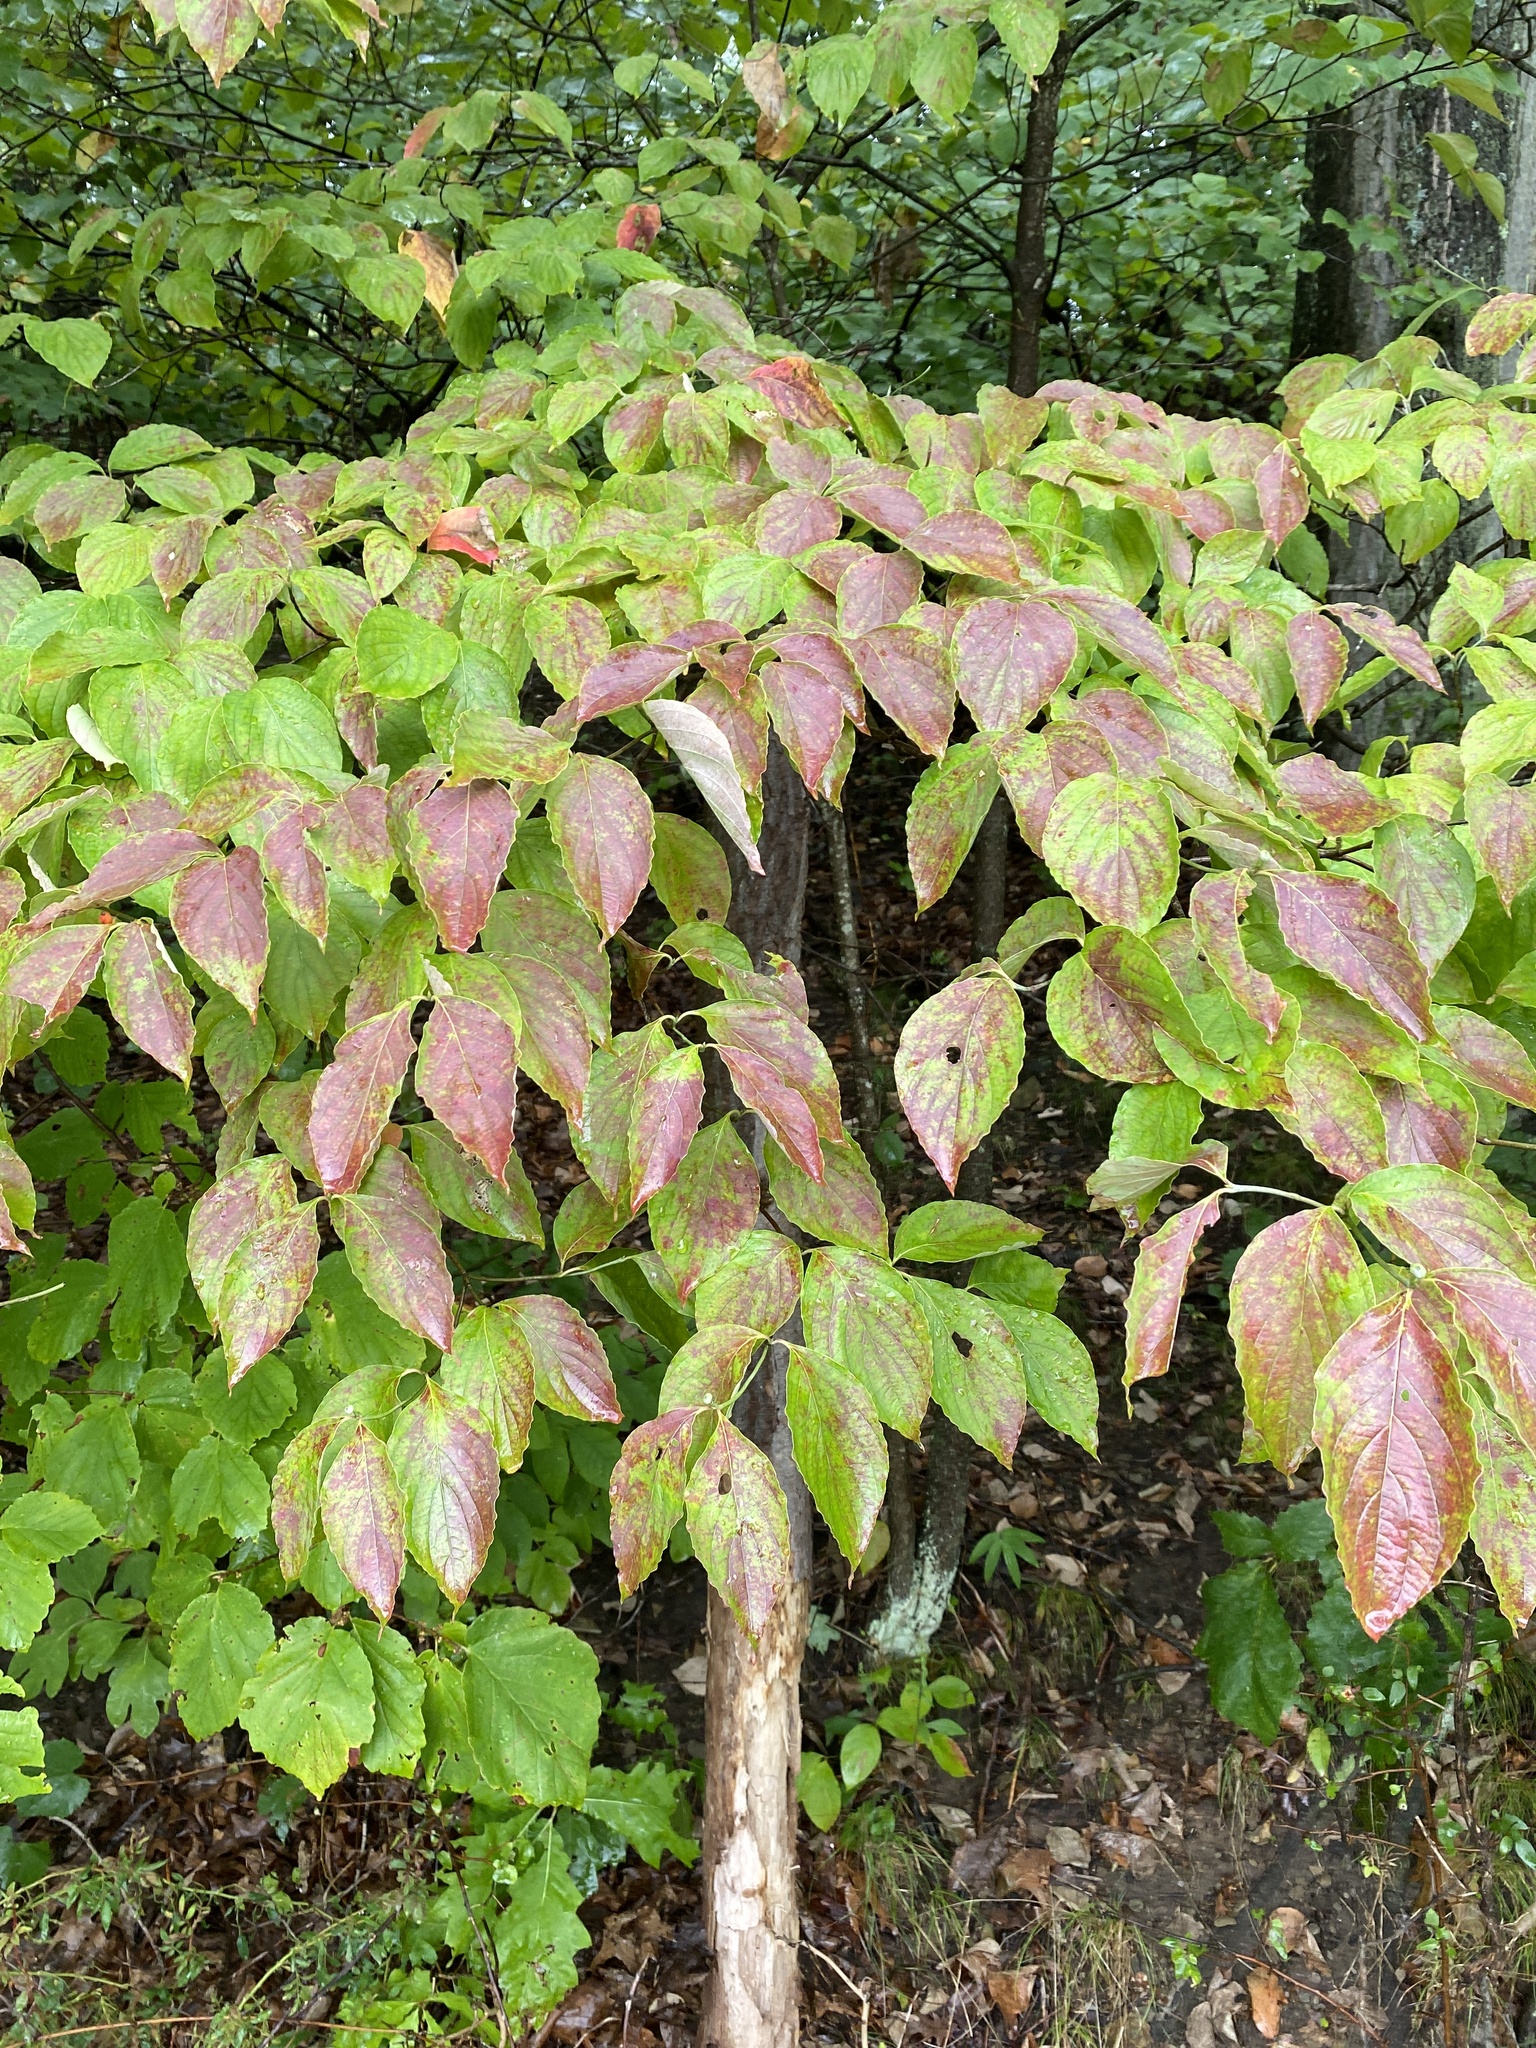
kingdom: Plantae
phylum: Tracheophyta
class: Magnoliopsida
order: Cornales
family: Cornaceae
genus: Cornus
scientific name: Cornus florida
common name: Flowering dogwood
